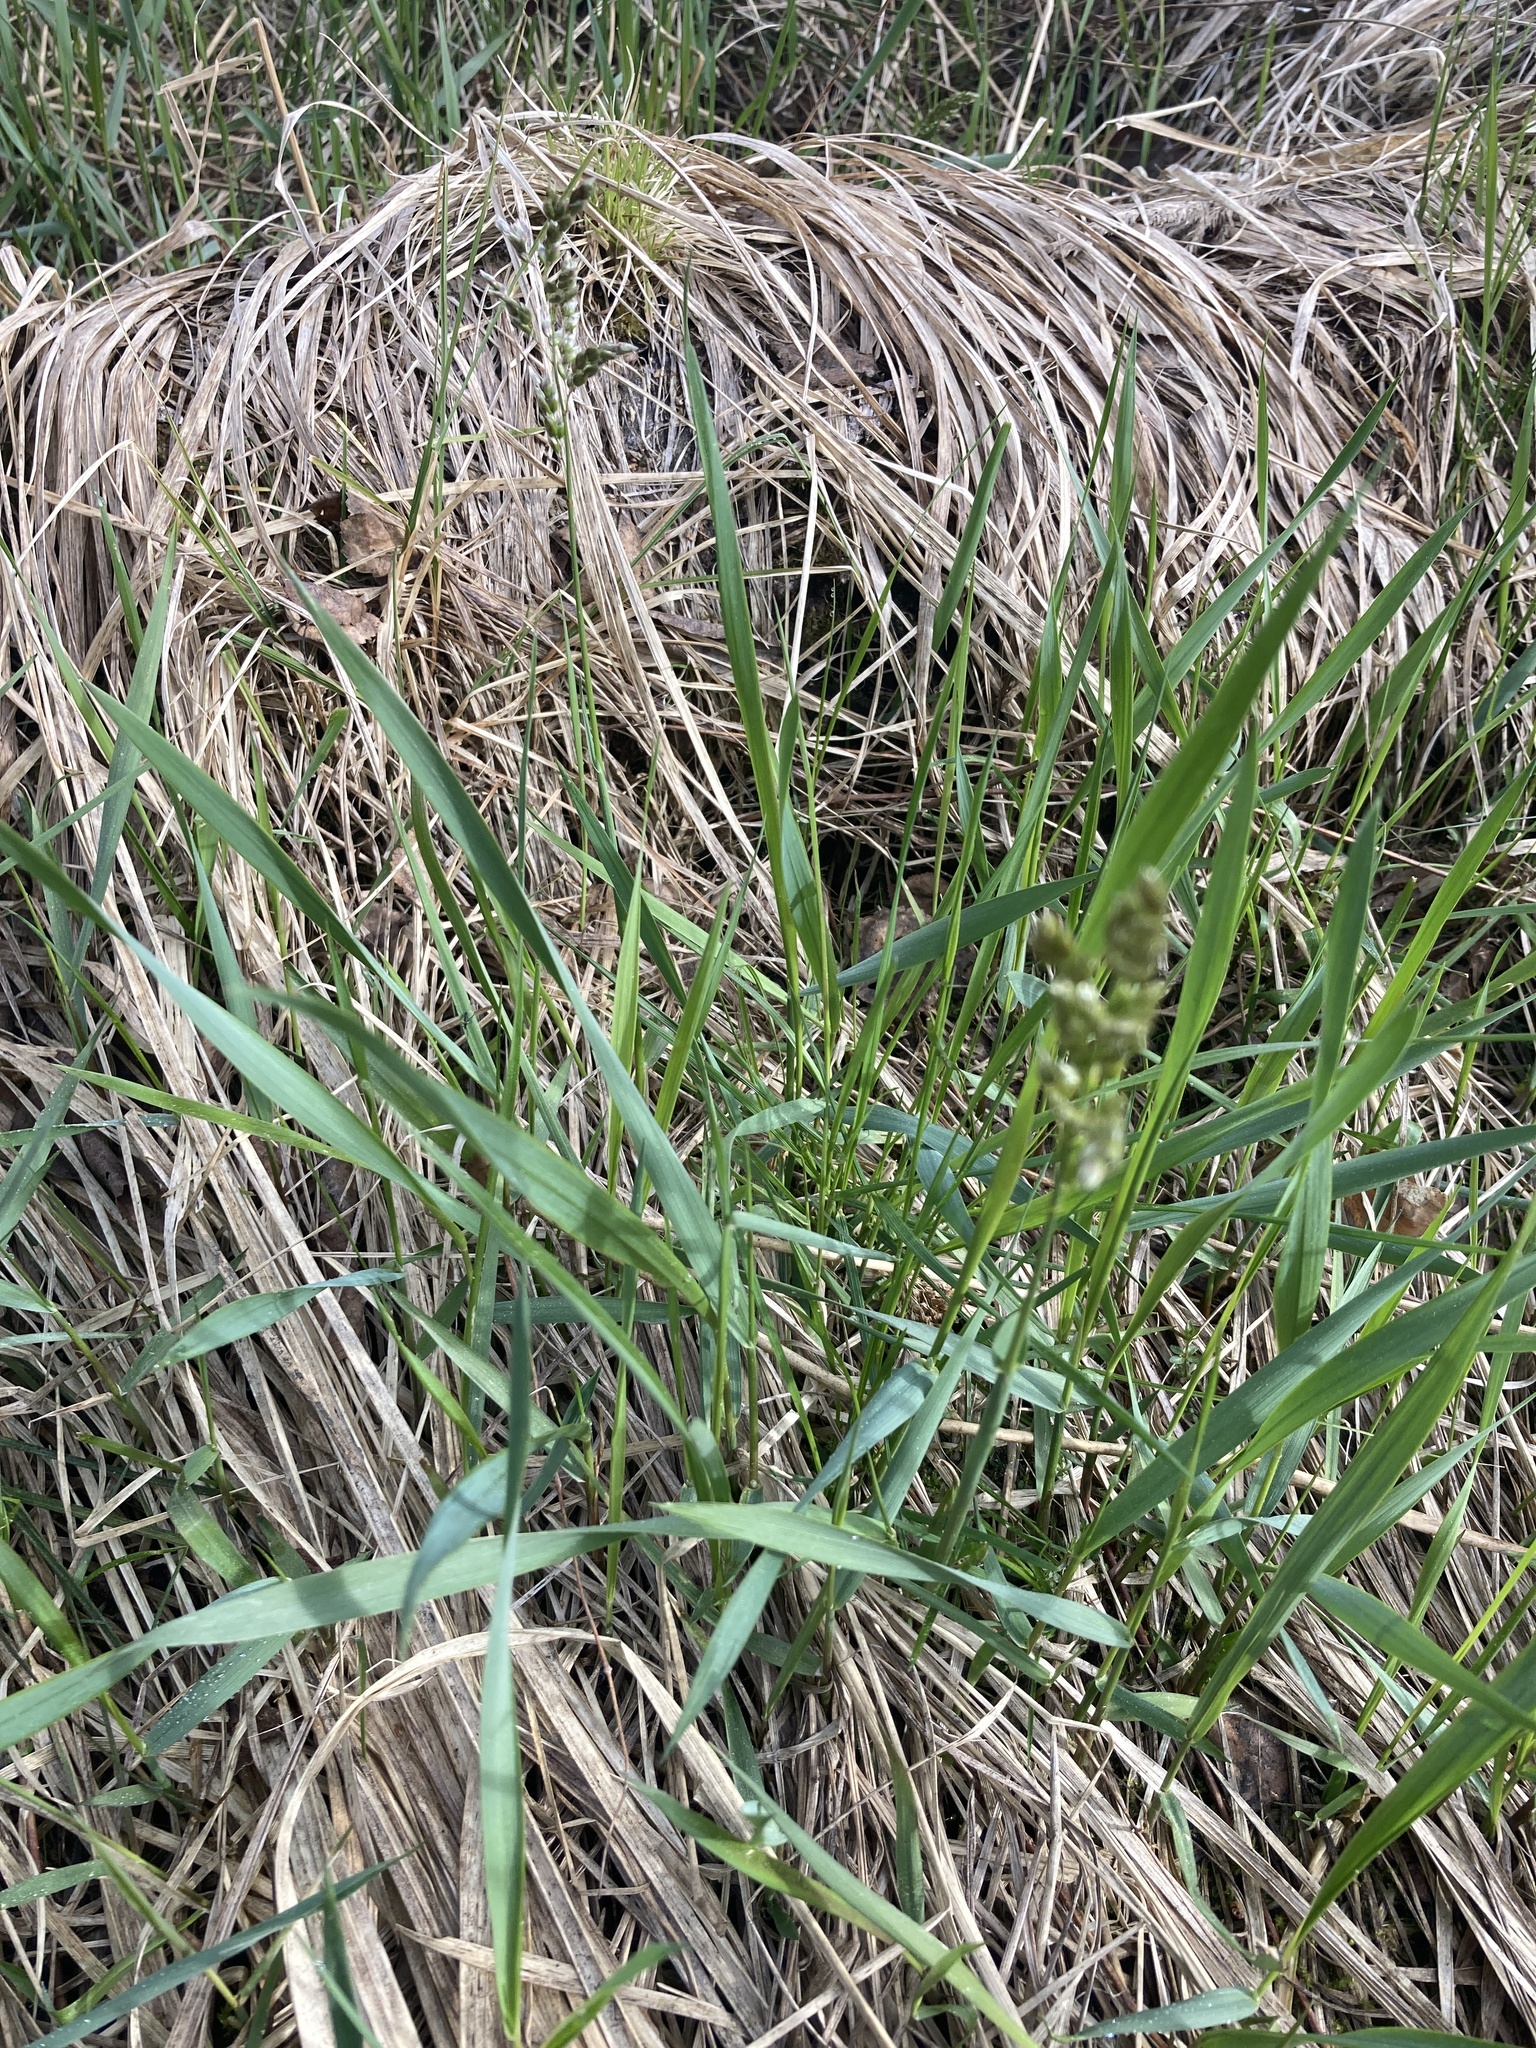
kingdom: Plantae
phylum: Tracheophyta
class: Liliopsida
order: Poales
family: Poaceae
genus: Anthoxanthum
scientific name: Anthoxanthum nitens
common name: Holy grass
